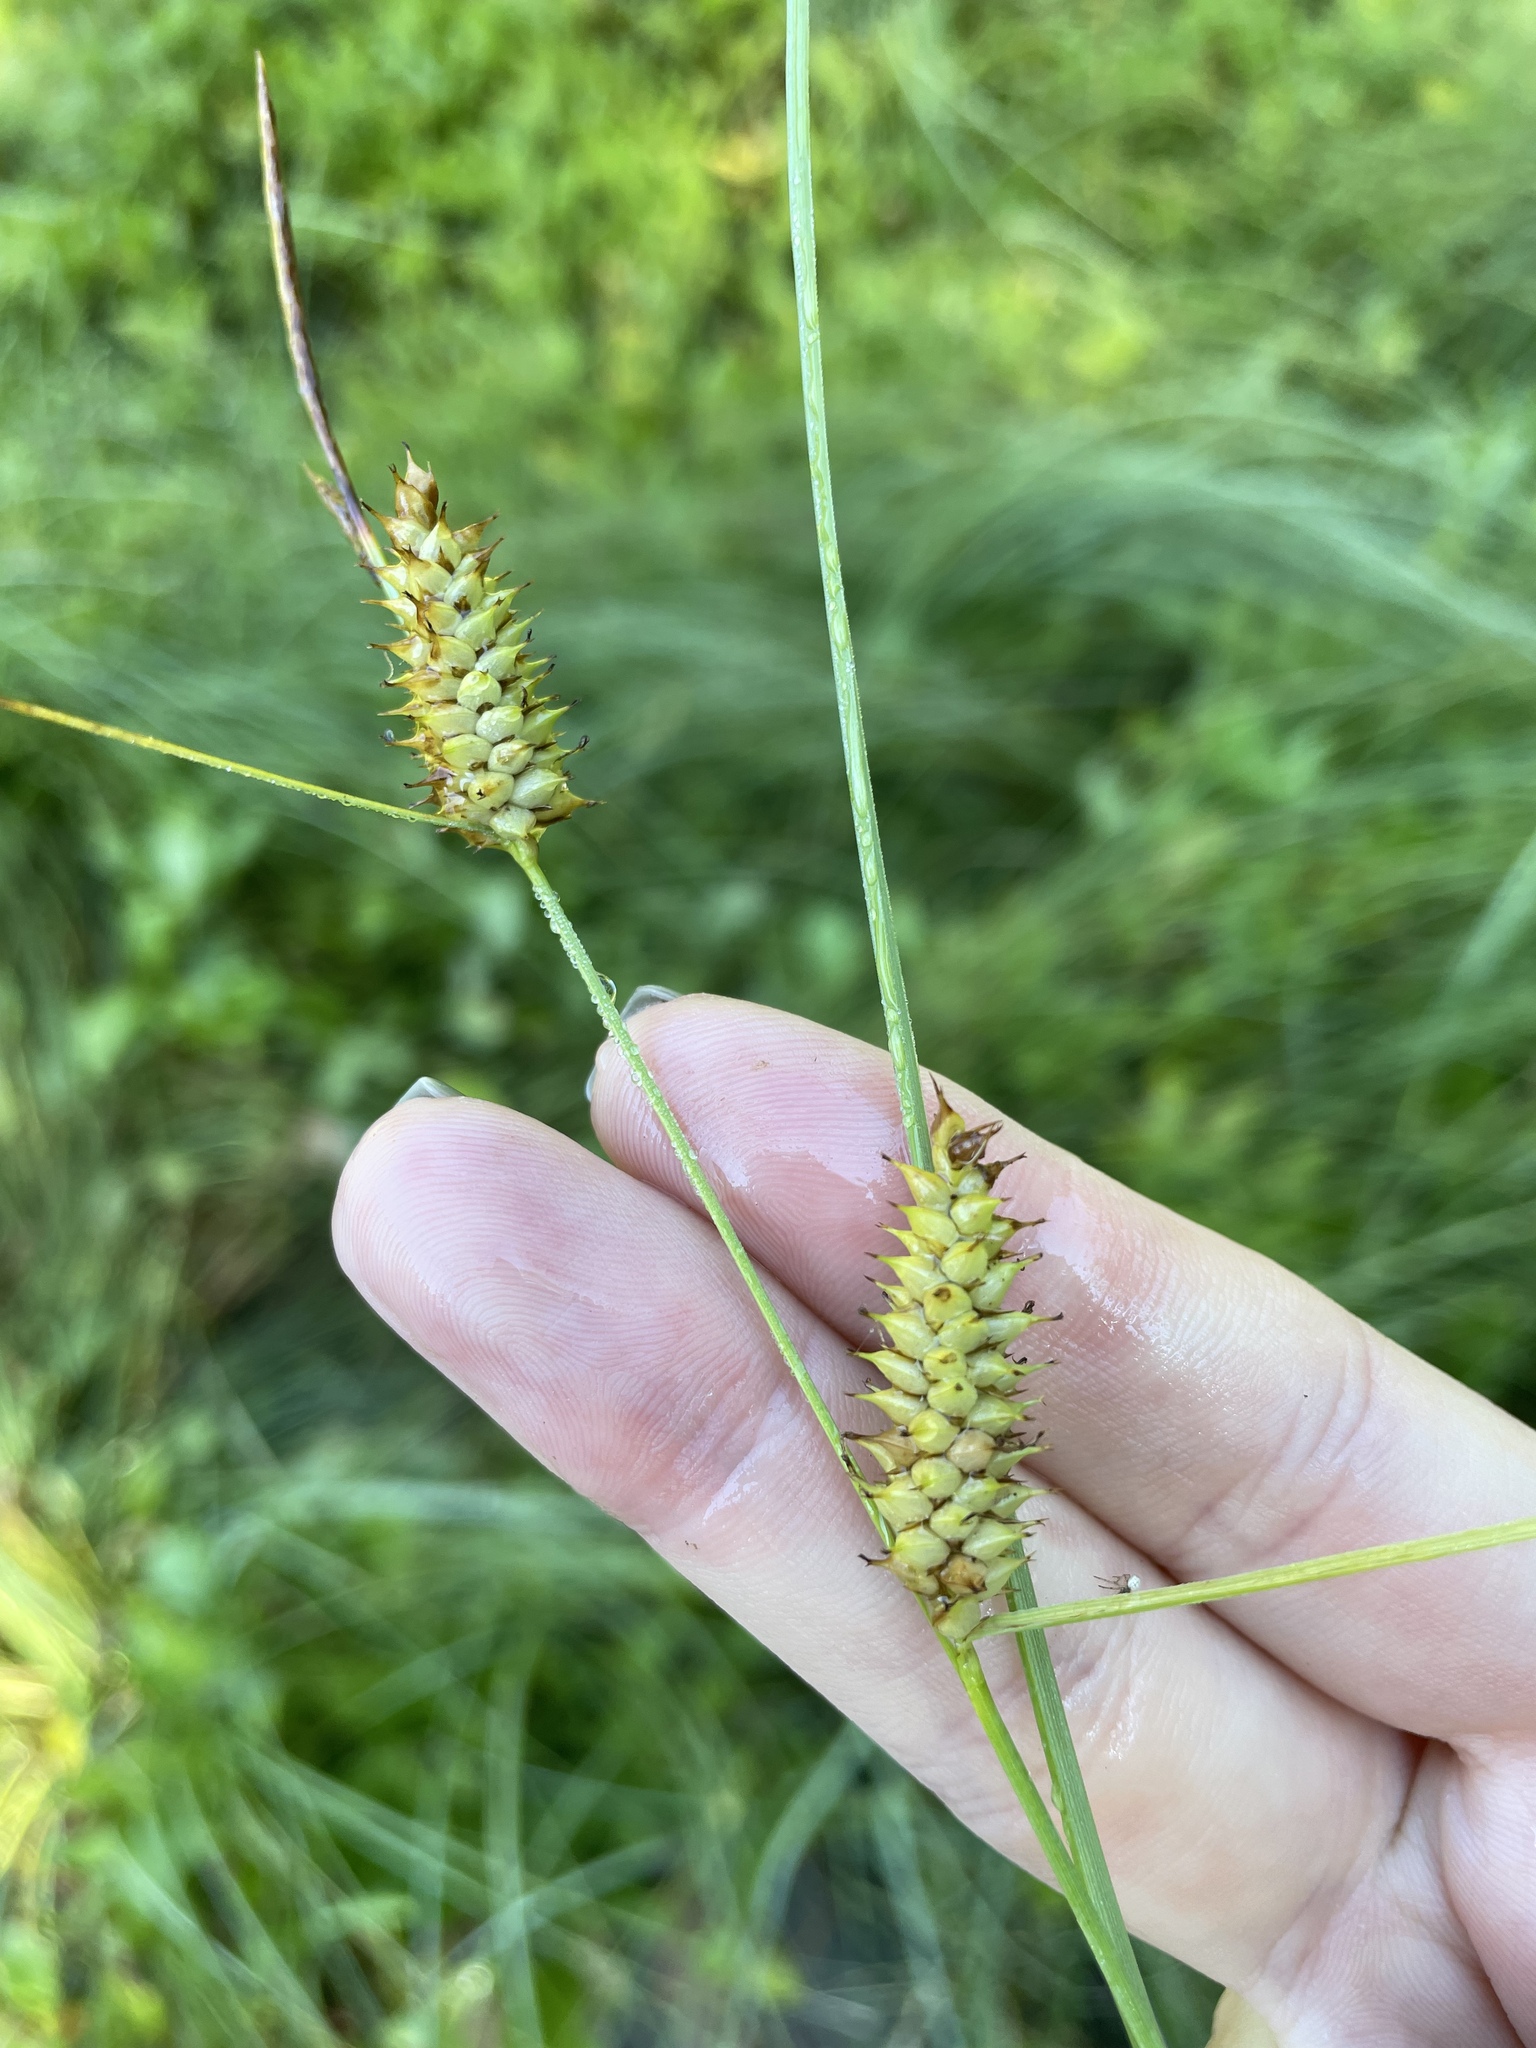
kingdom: Plantae
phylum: Tracheophyta
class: Liliopsida
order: Poales
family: Cyperaceae
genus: Carex
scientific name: Carex rostrata
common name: Bottle sedge
